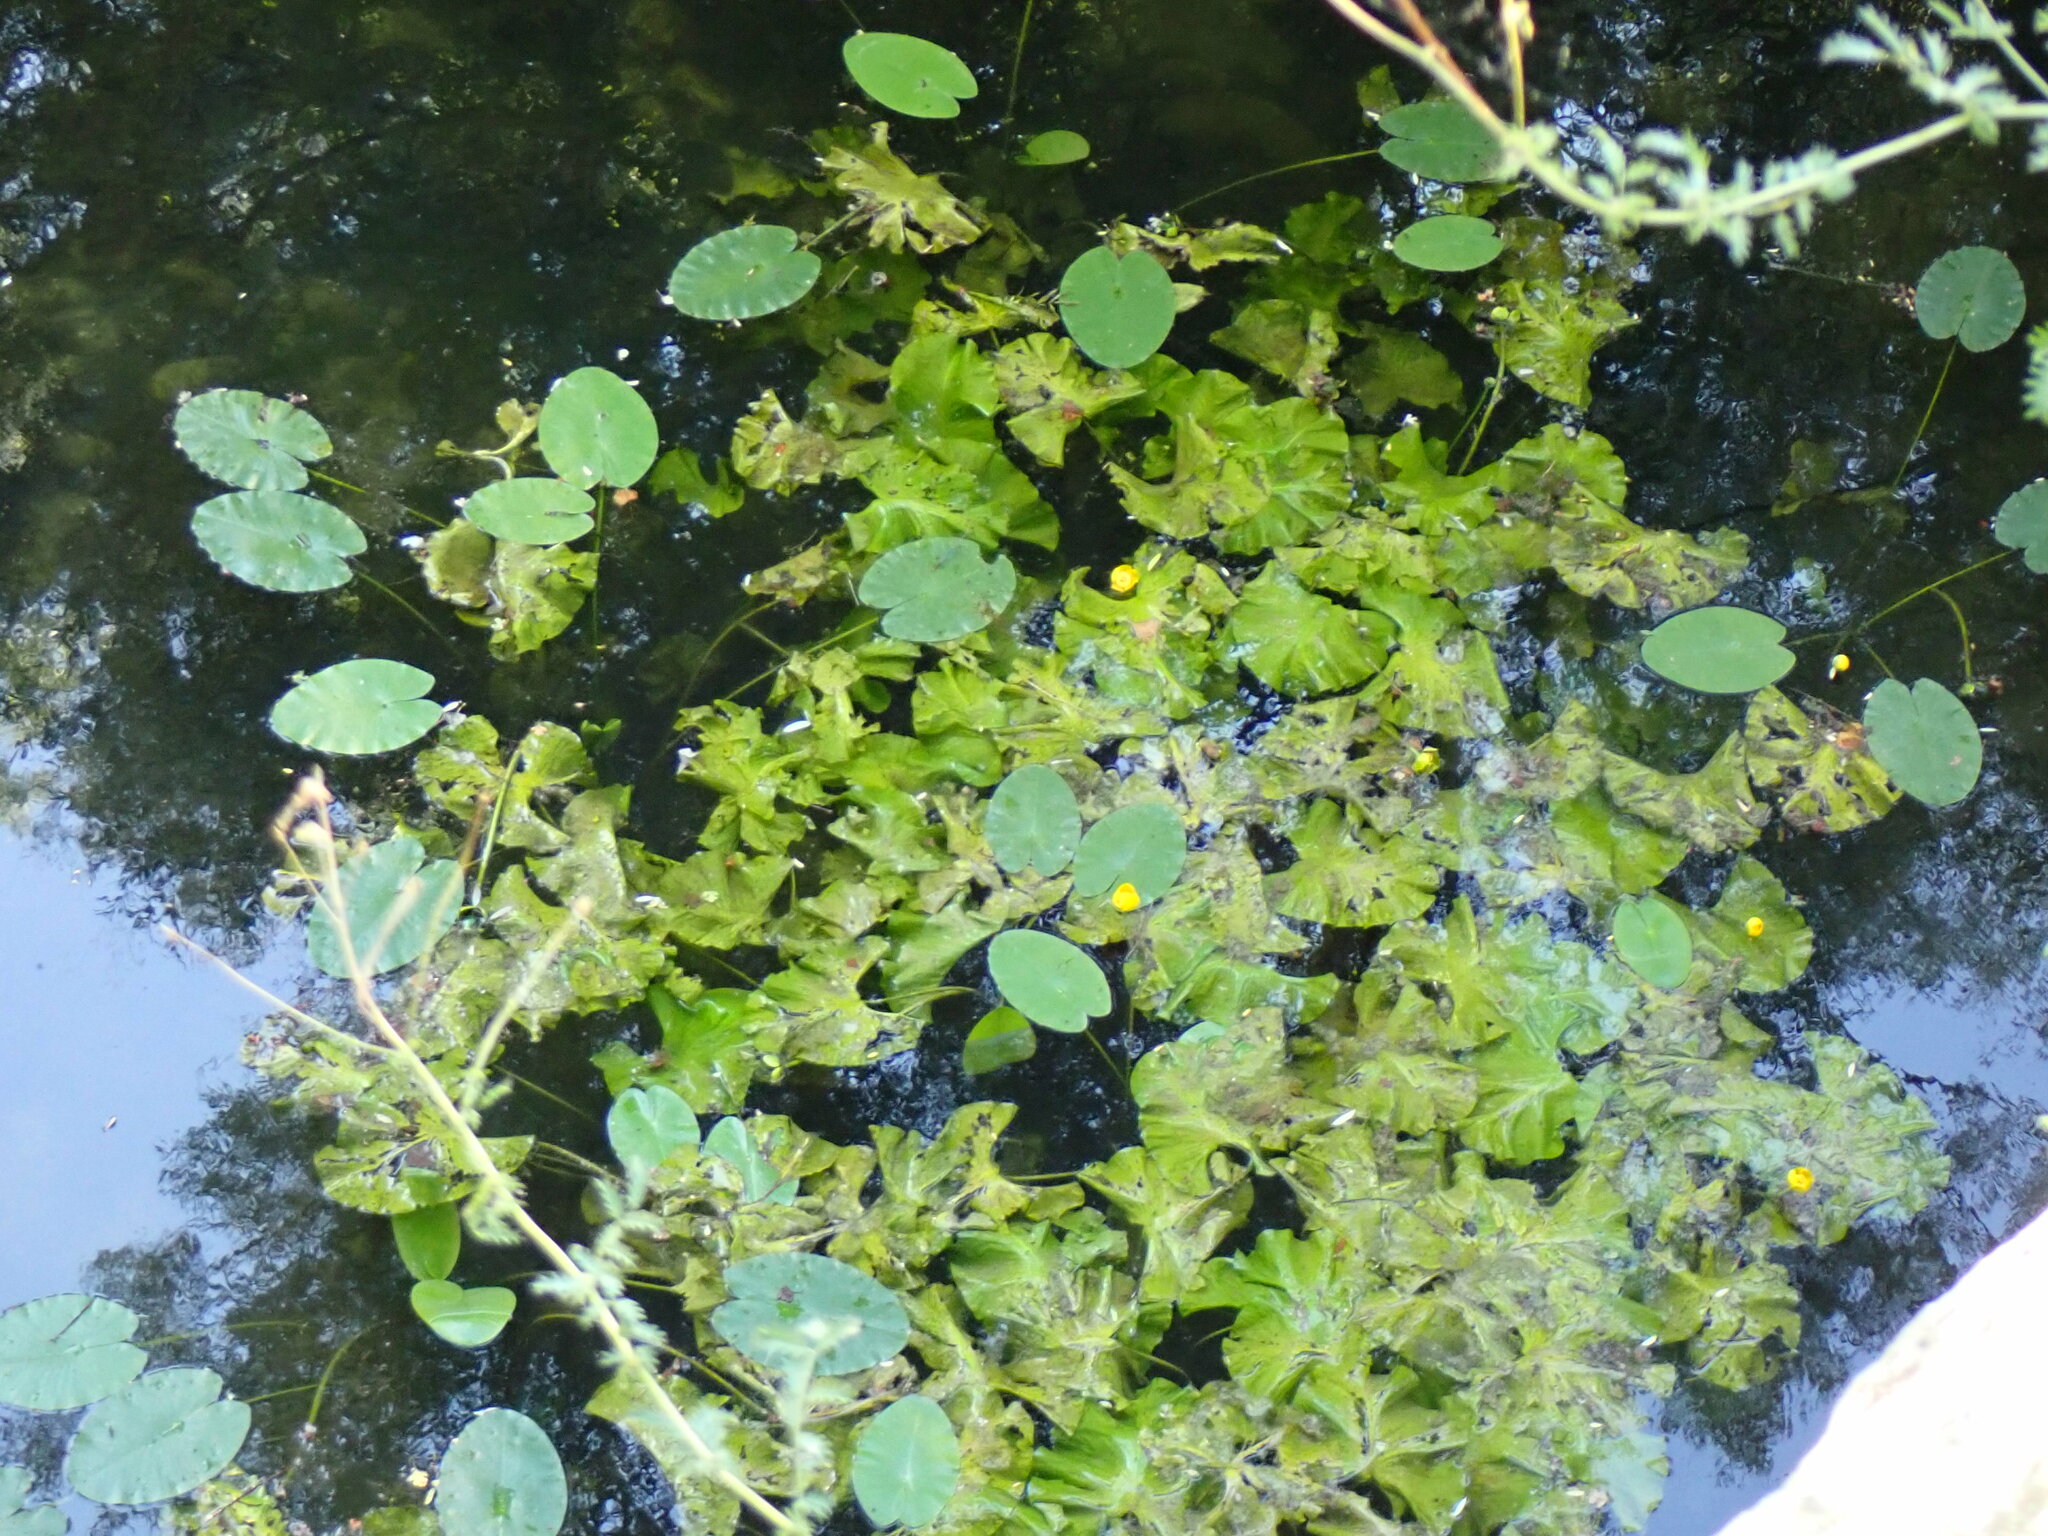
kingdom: Plantae
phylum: Tracheophyta
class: Magnoliopsida
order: Nymphaeales
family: Nymphaeaceae
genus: Nuphar
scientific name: Nuphar lutea
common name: Yellow water-lily
